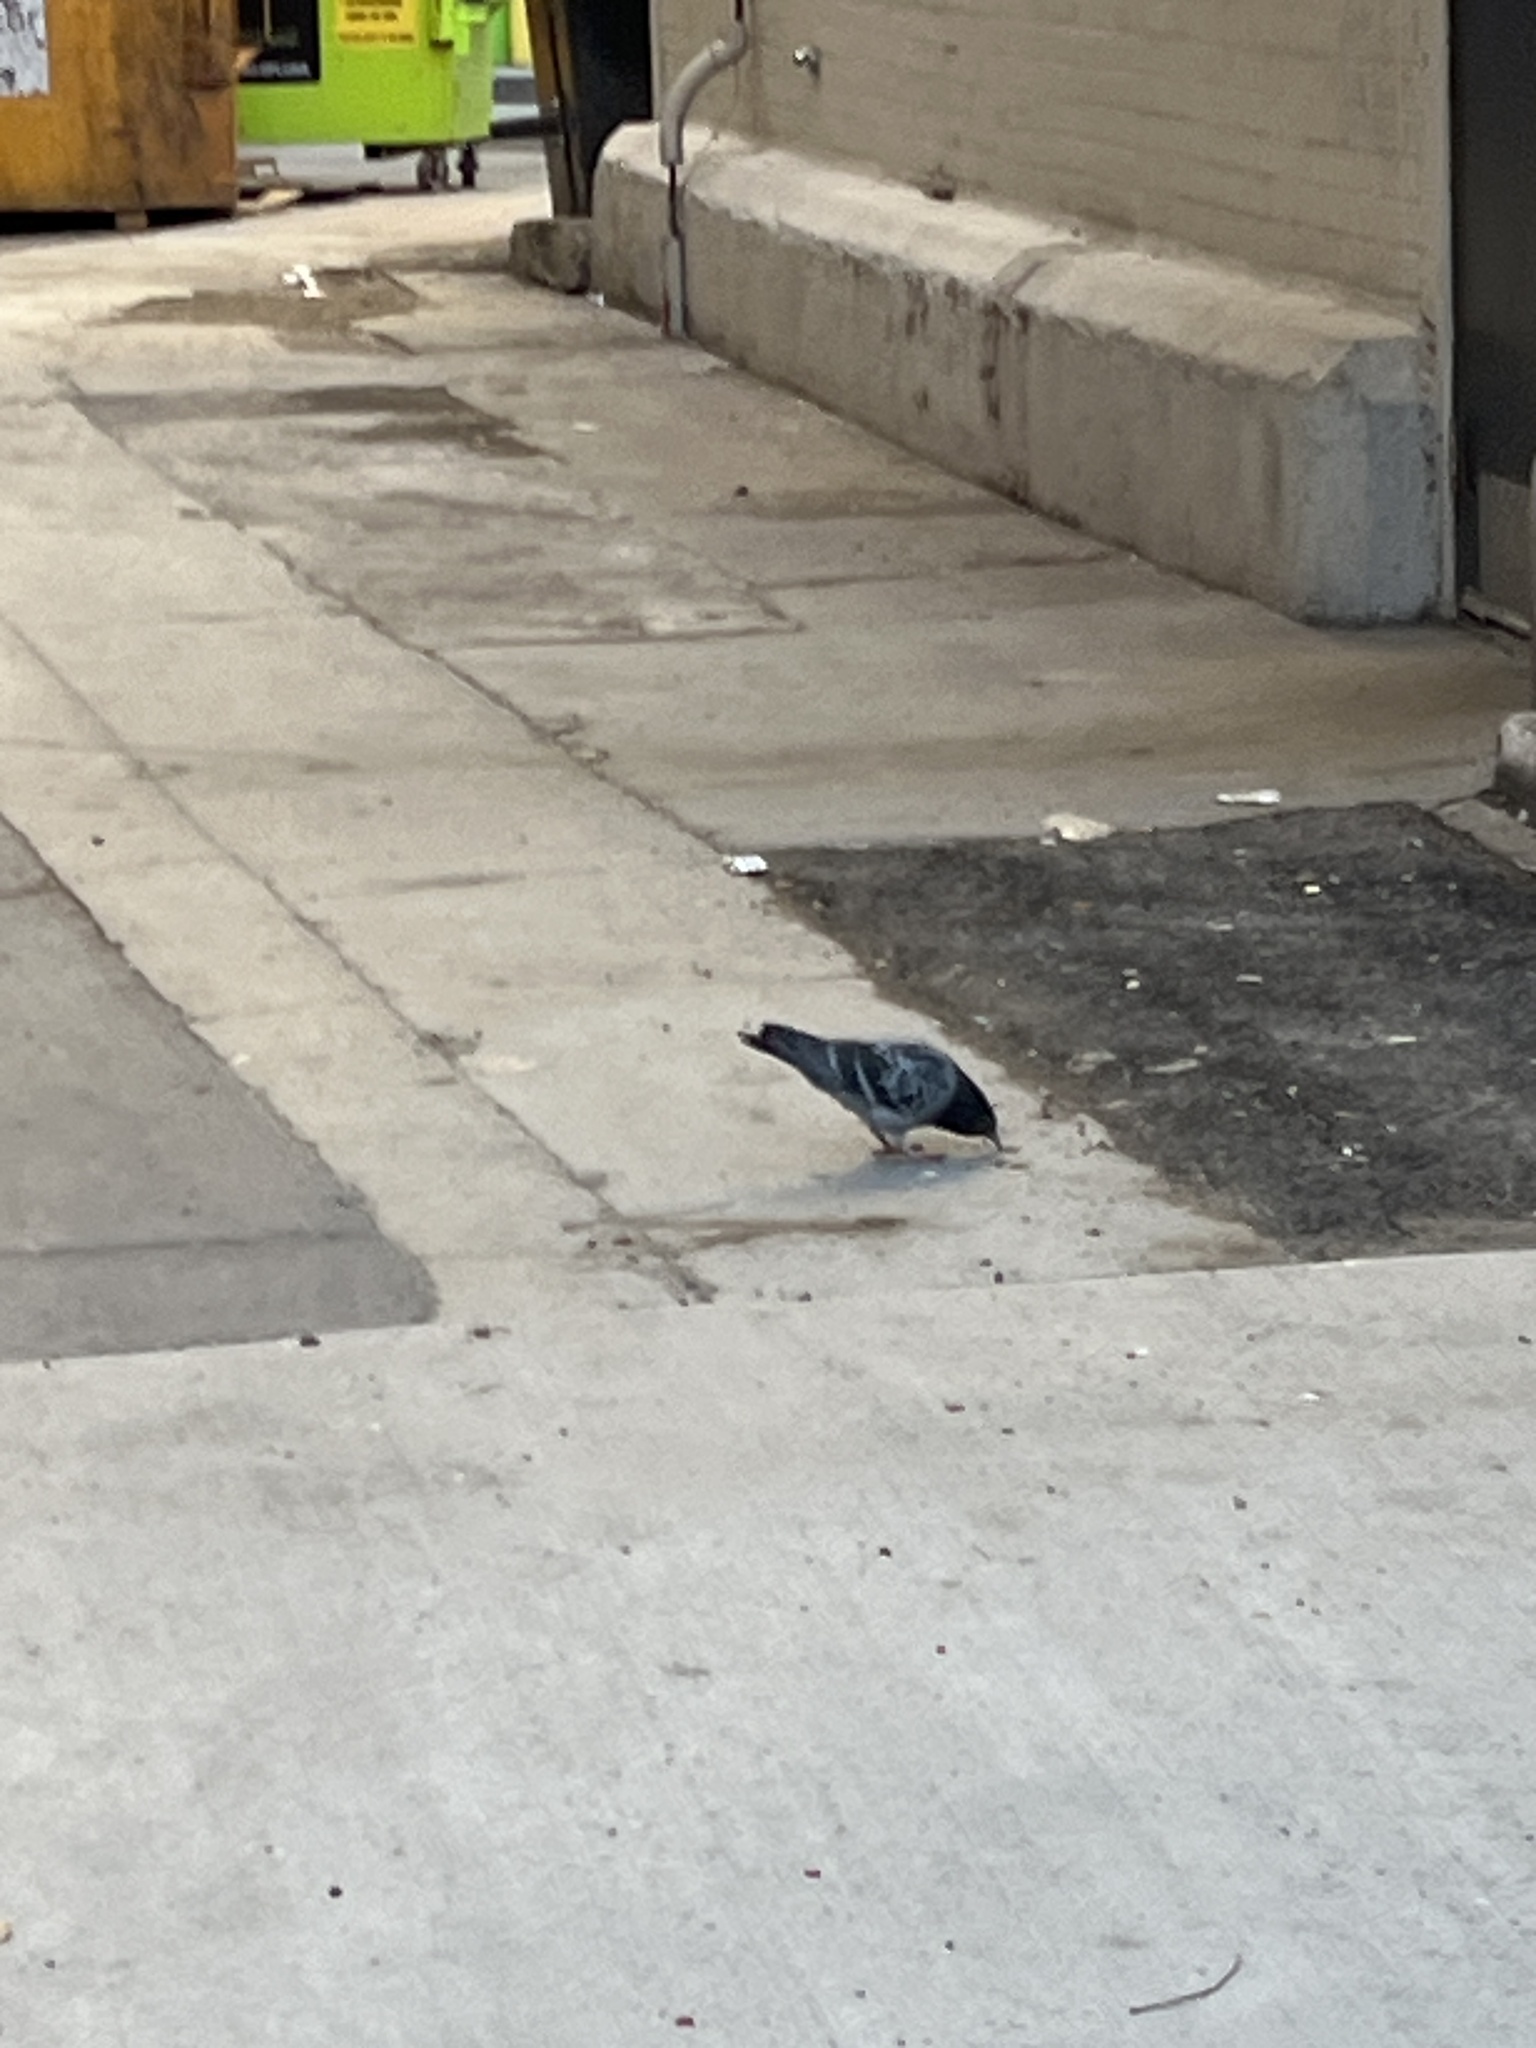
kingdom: Animalia
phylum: Chordata
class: Aves
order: Columbiformes
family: Columbidae
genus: Columba
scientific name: Columba livia
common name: Rock pigeon
